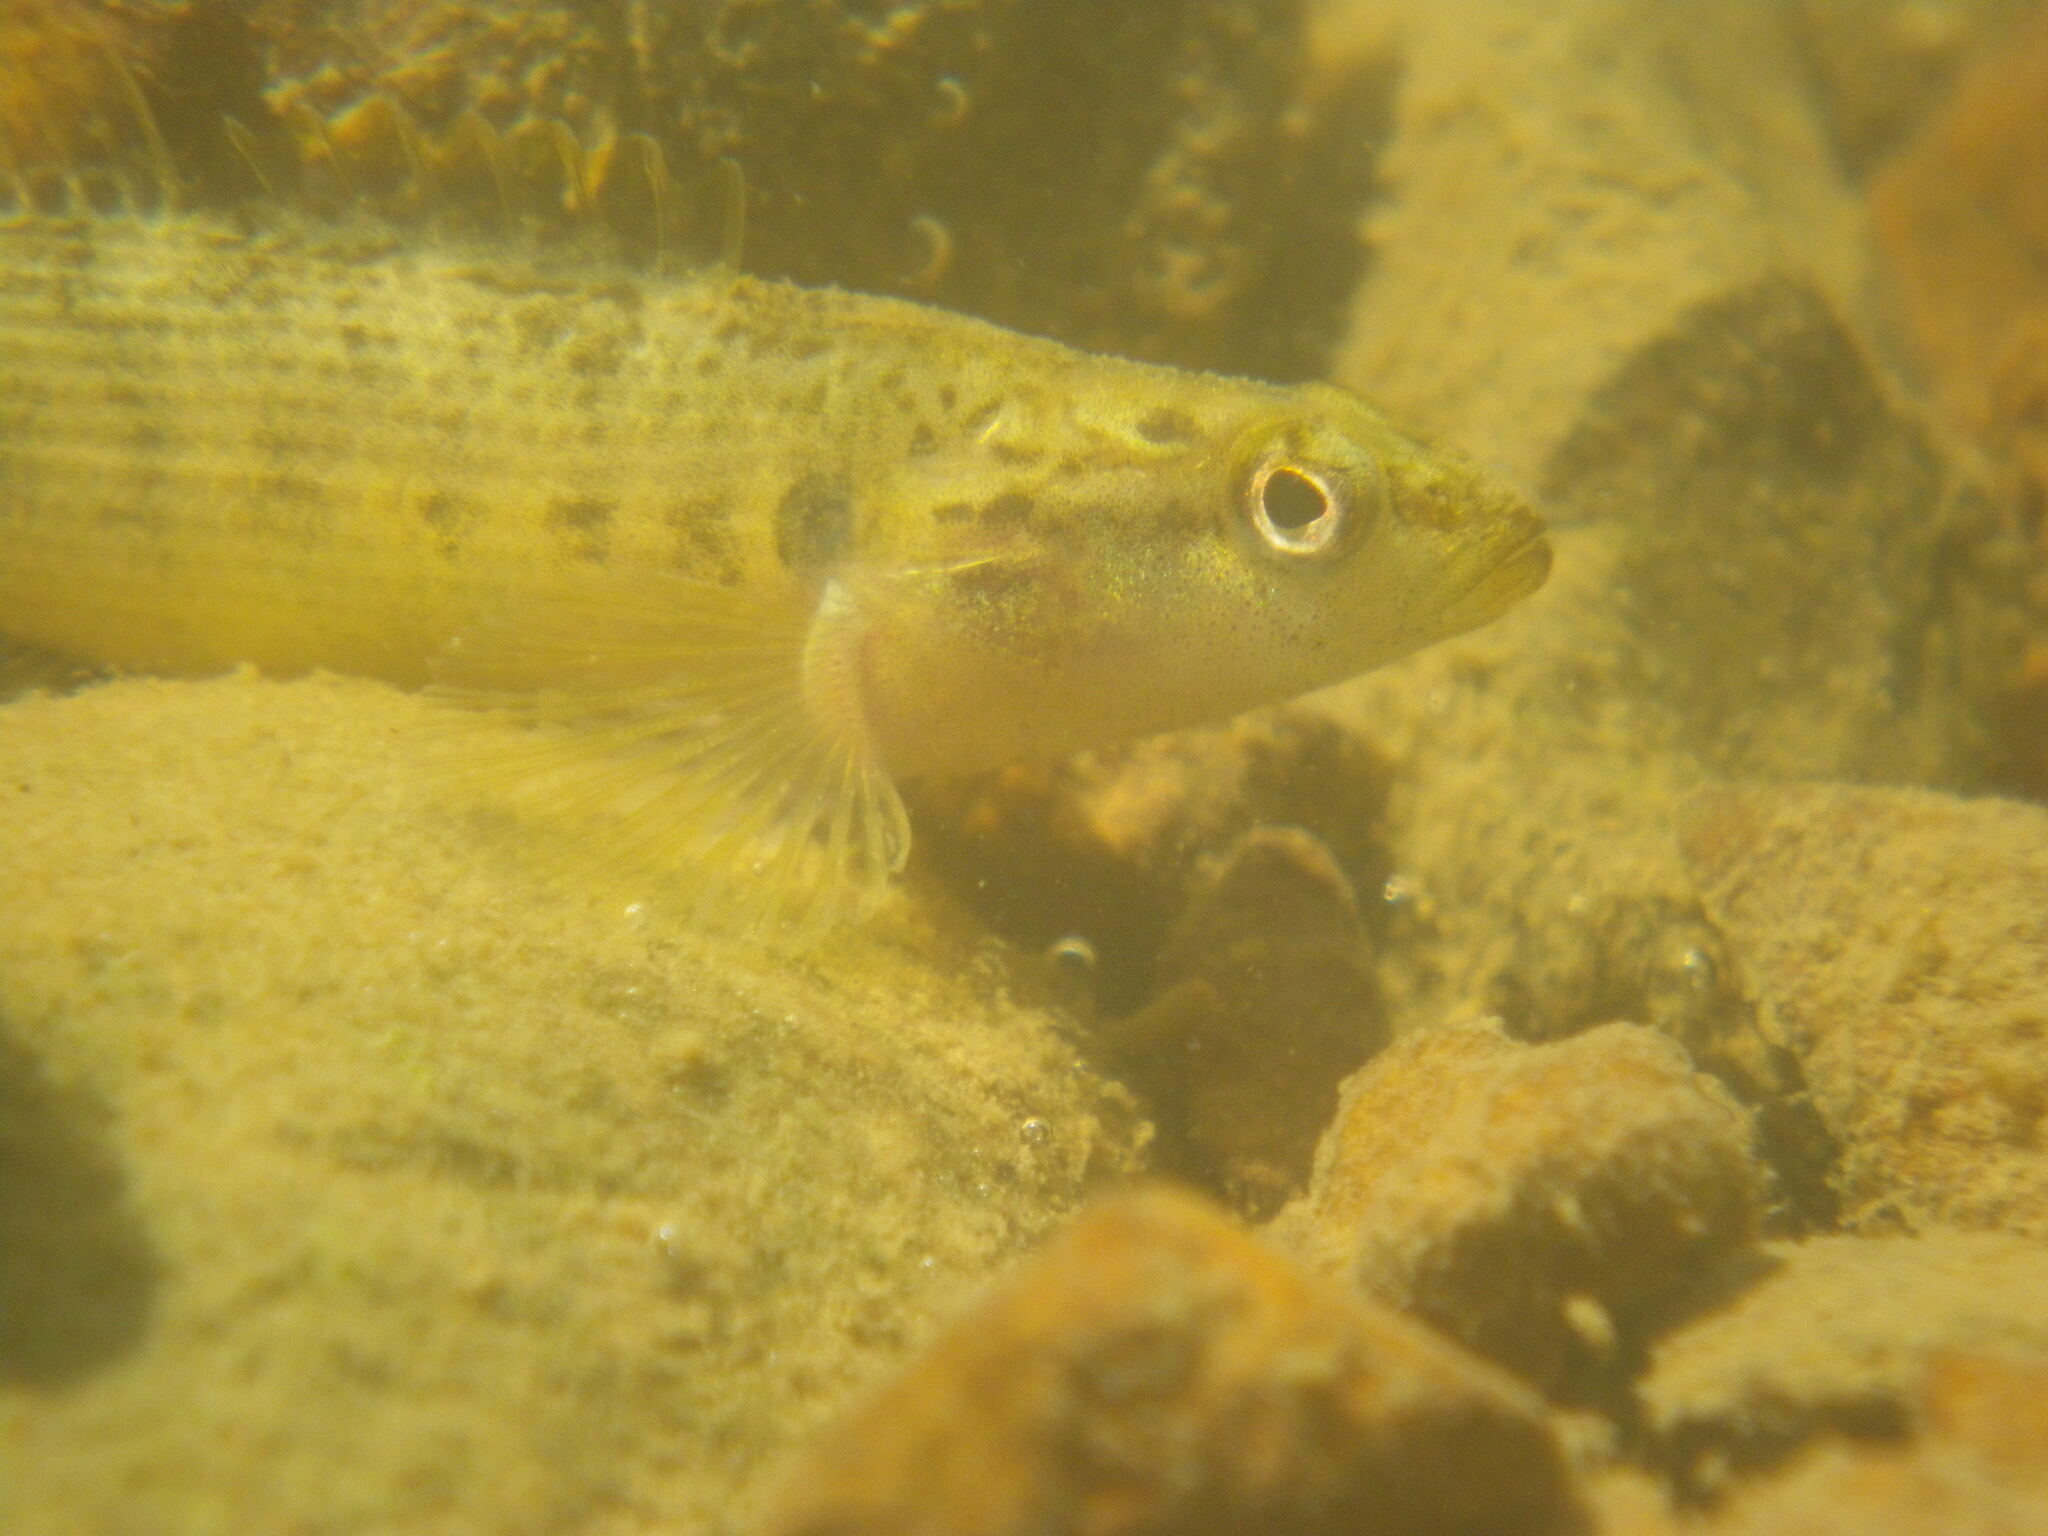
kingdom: Animalia
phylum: Chordata
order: Perciformes
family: Percidae
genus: Etheostoma
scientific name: Etheostoma flabellare
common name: Fantail darter
